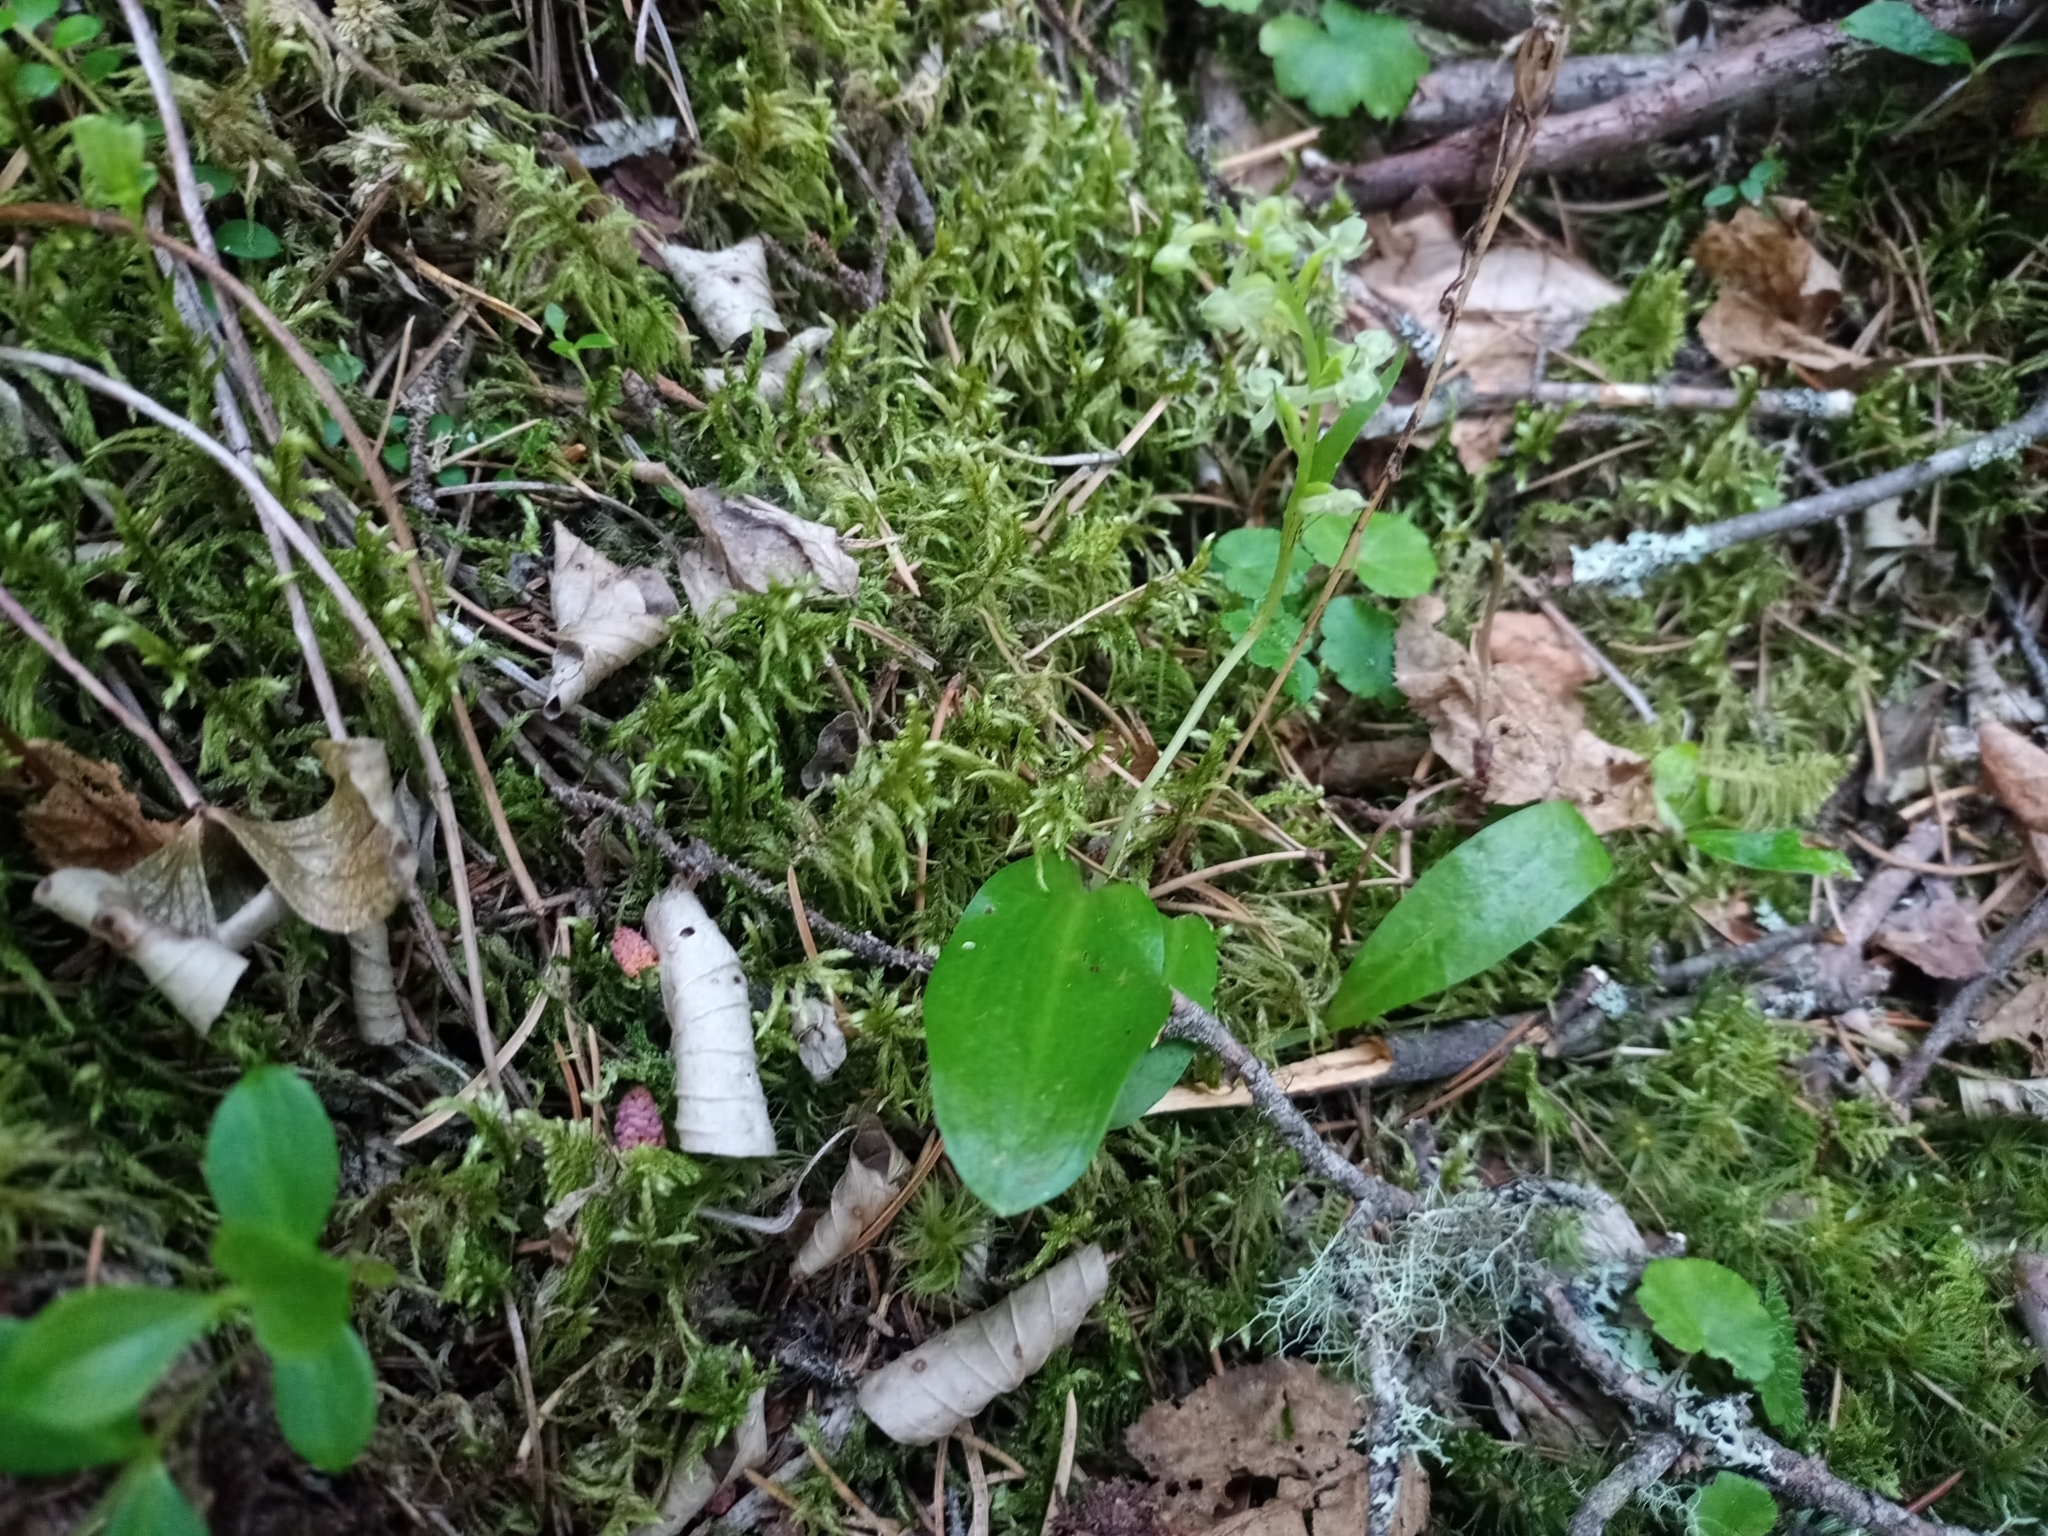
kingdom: Plantae
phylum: Tracheophyta
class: Liliopsida
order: Asparagales
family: Orchidaceae
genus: Platanthera
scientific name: Platanthera obtusata
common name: Blunt bog orchid
